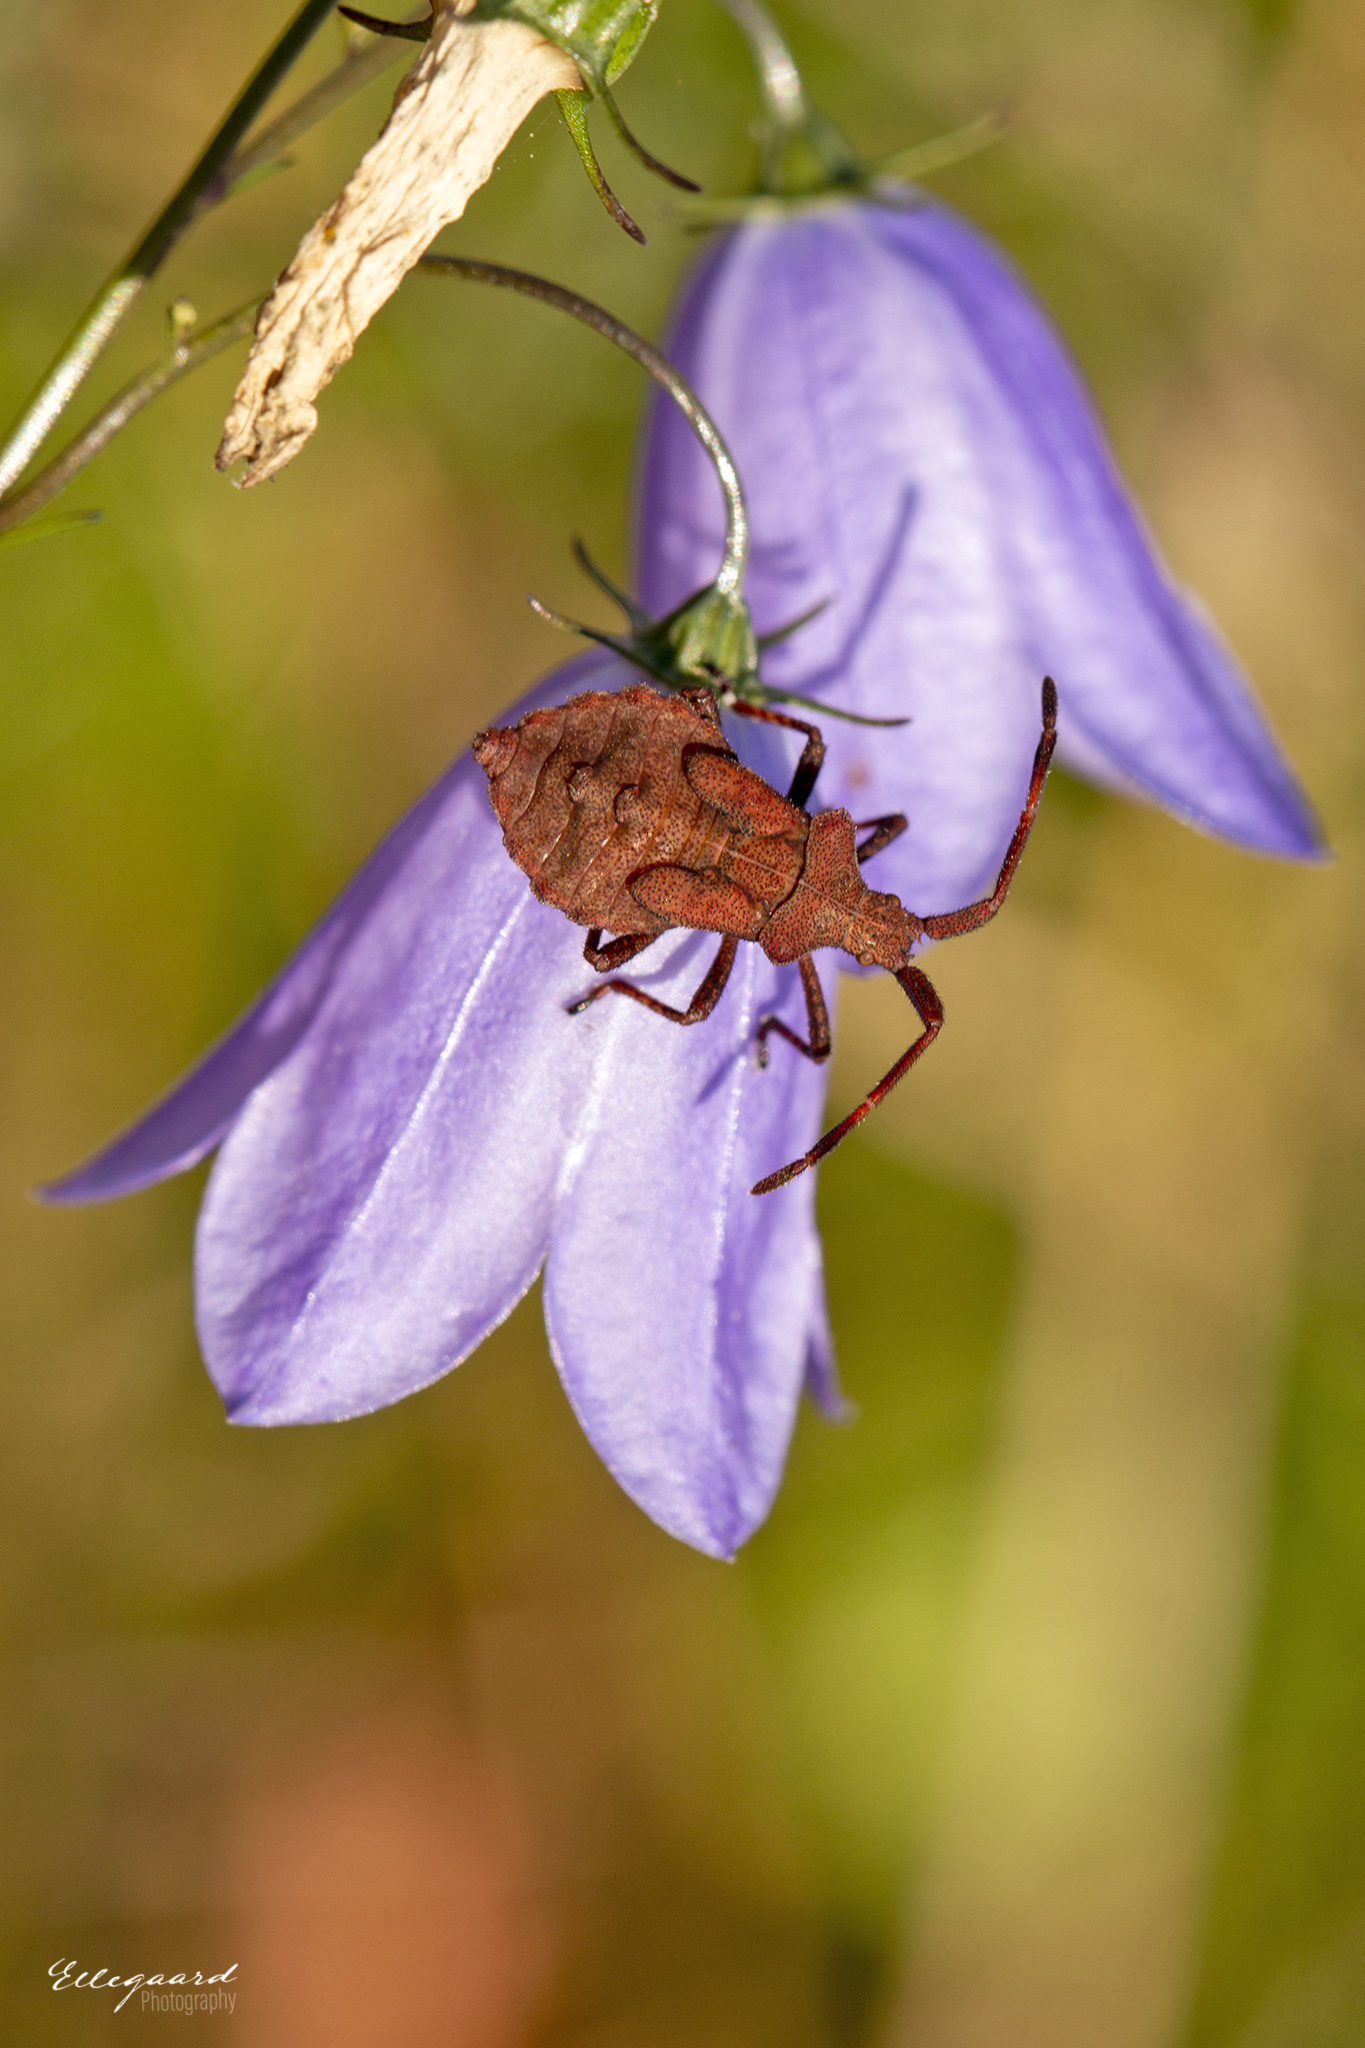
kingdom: Animalia
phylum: Arthropoda
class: Insecta
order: Hemiptera
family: Coreidae
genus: Coreus
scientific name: Coreus marginatus
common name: Dock bug
